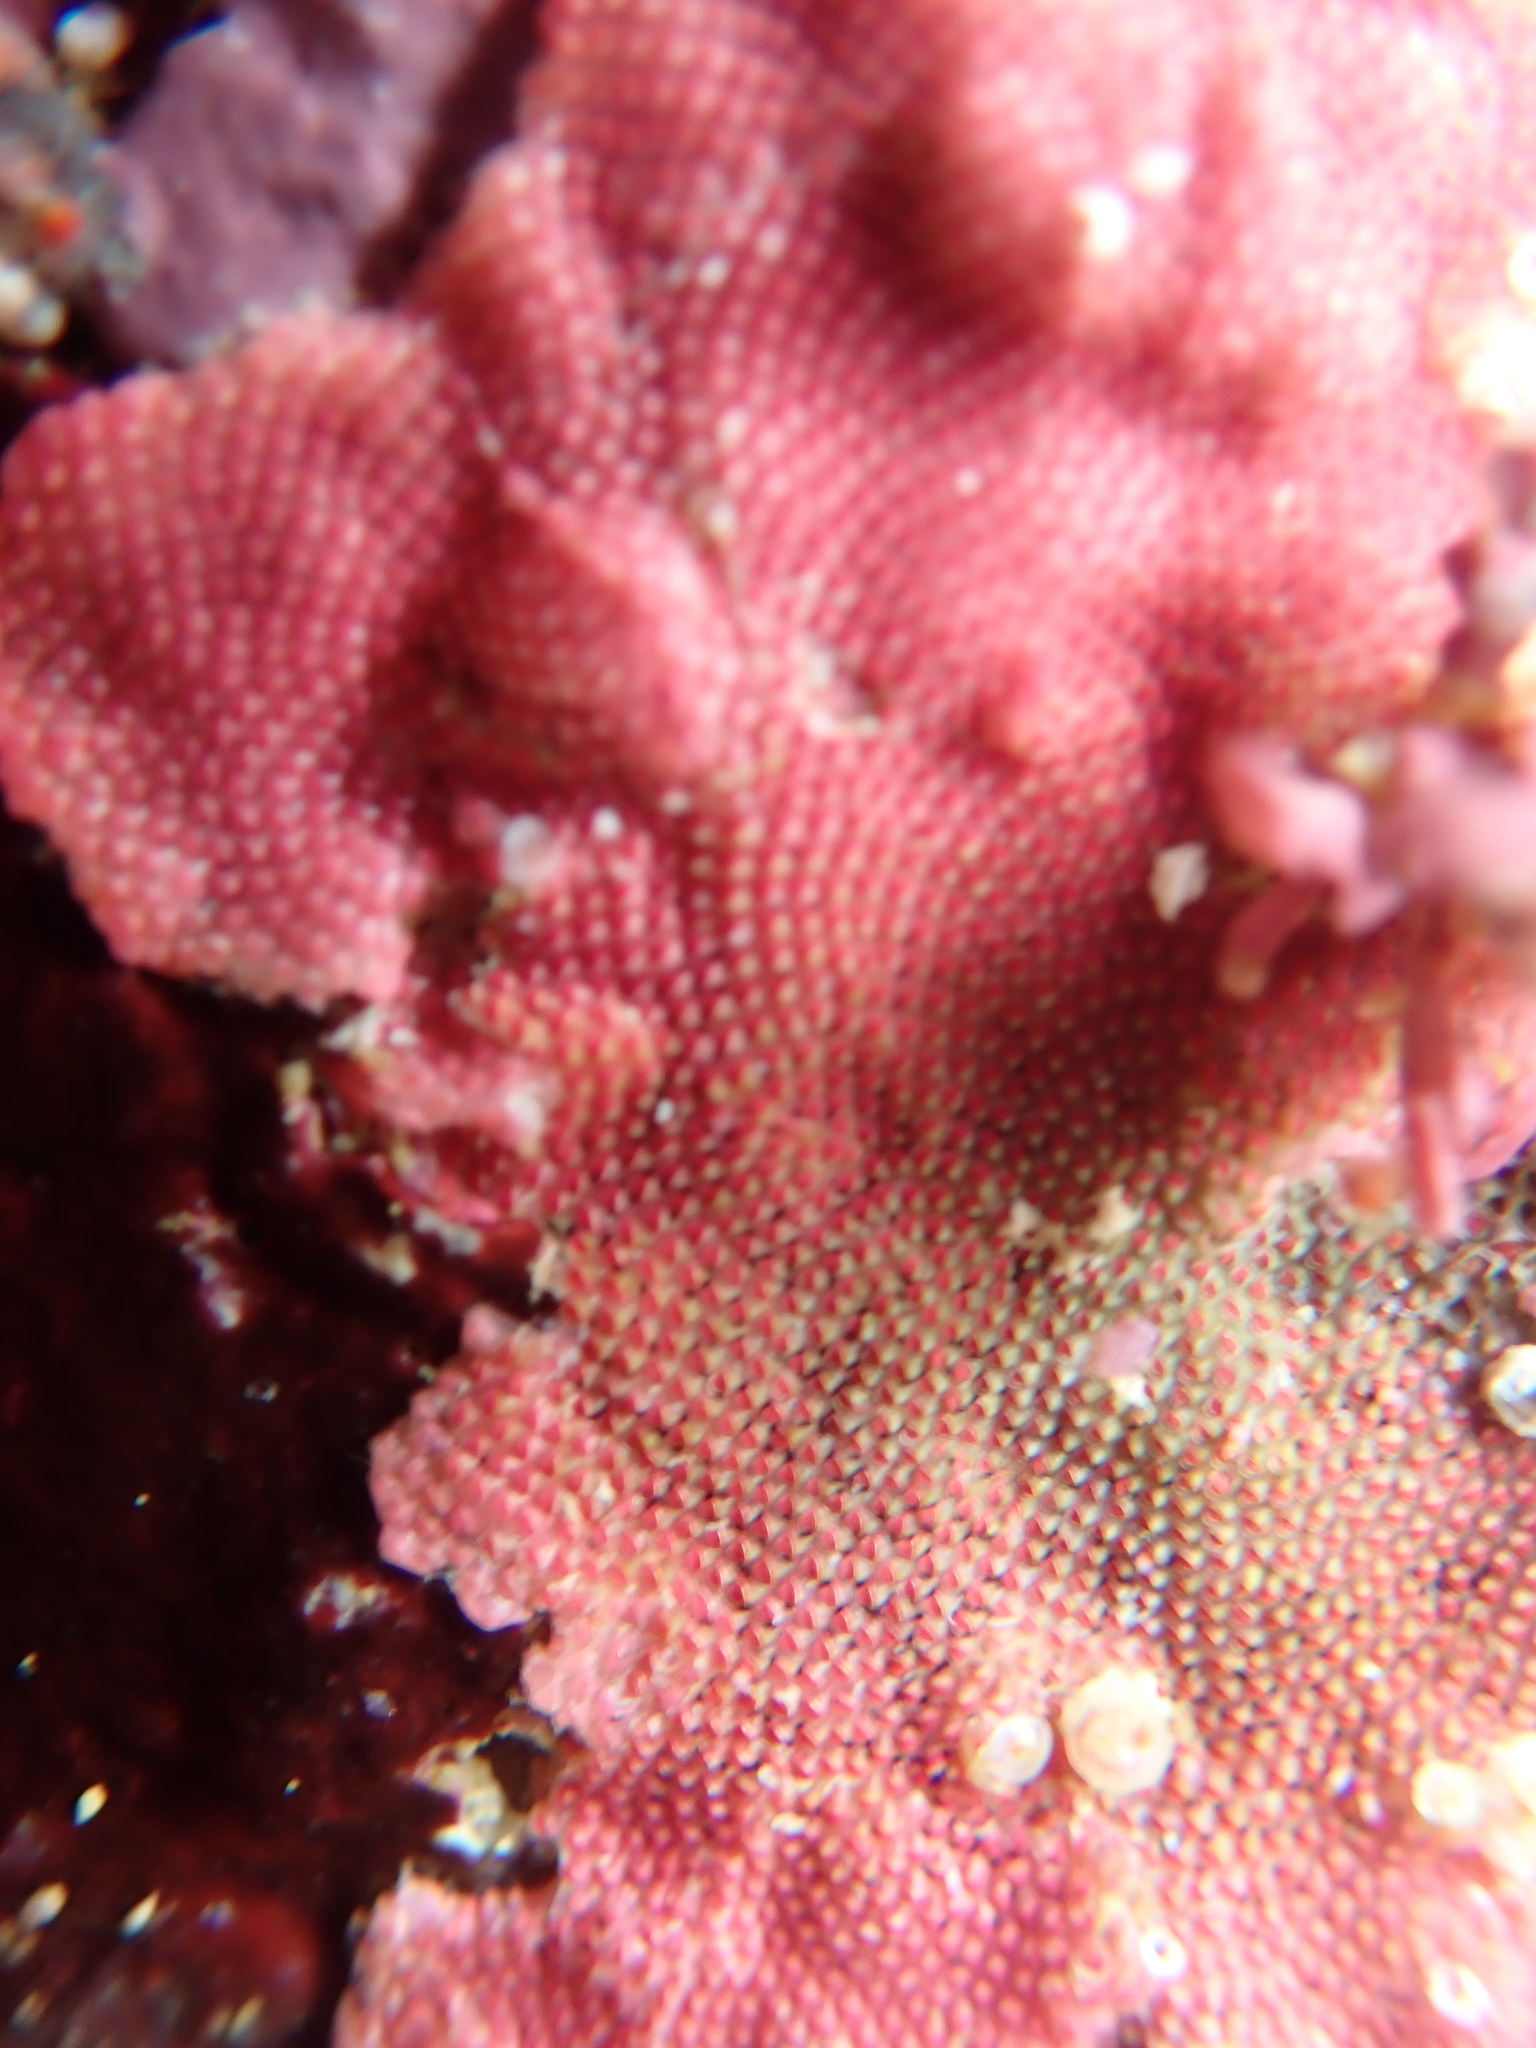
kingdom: Animalia
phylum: Bryozoa
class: Gymnolaemata
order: Cheilostomatida
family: Eurystomellidae
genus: Integripelta
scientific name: Integripelta bilabiata
